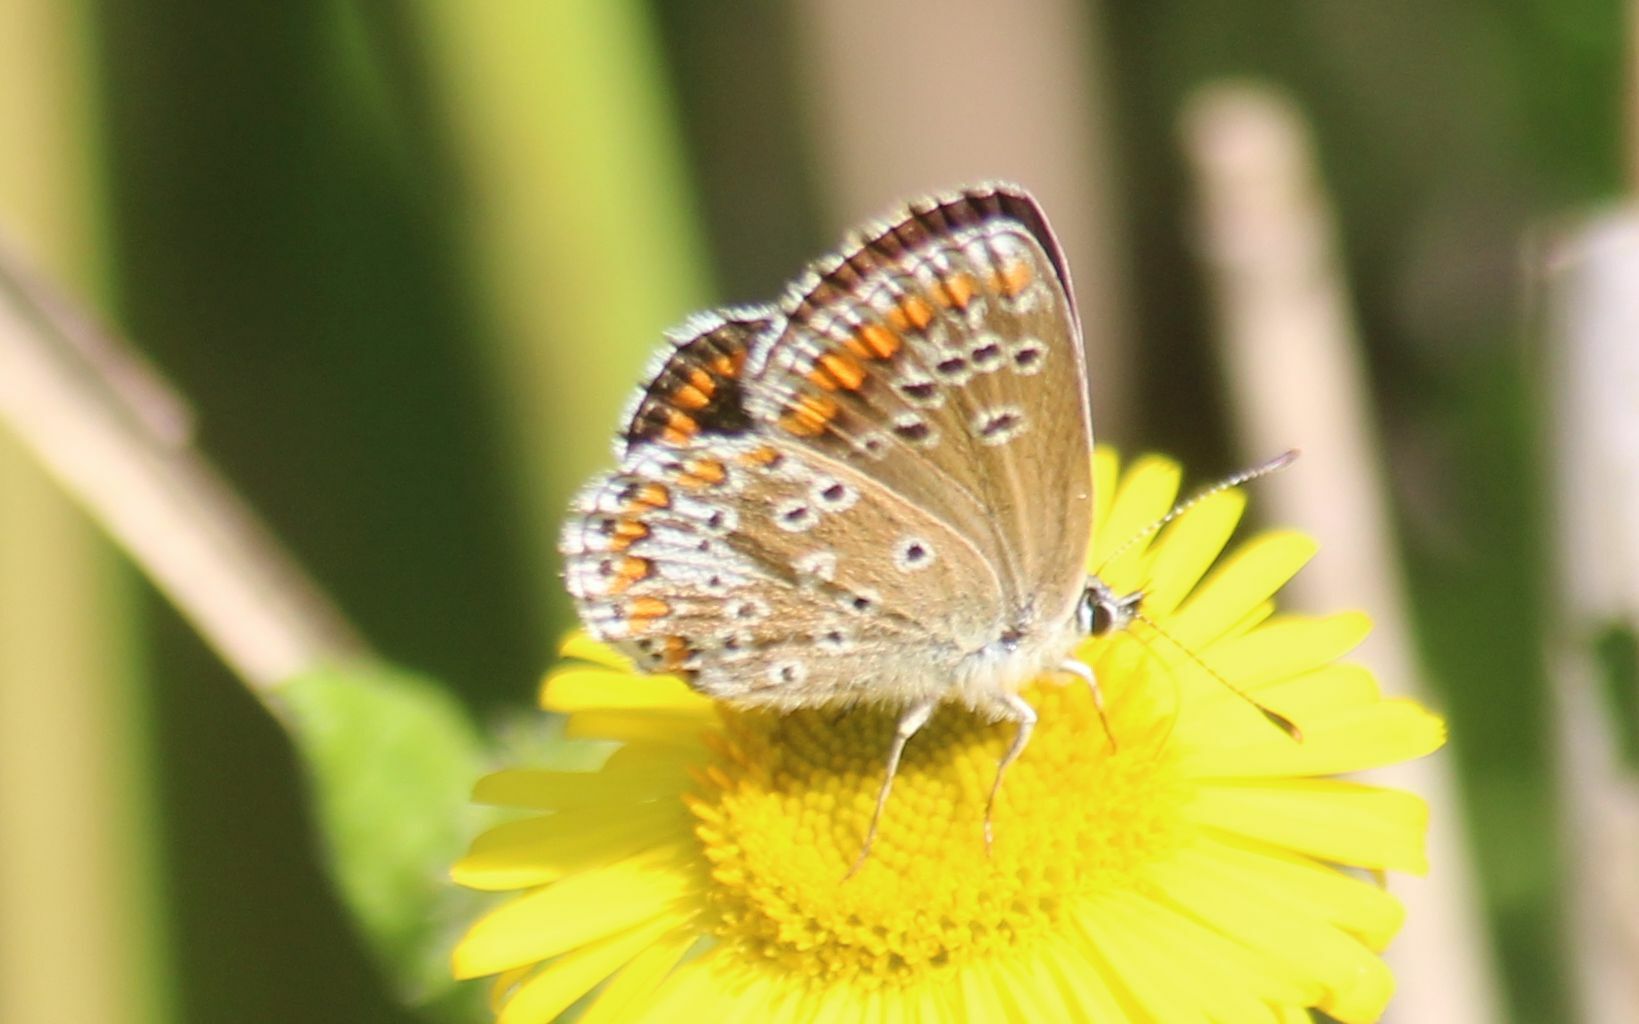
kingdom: Animalia
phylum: Arthropoda
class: Insecta
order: Lepidoptera
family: Lycaenidae
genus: Aricia
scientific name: Aricia agestis
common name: Brown argus
